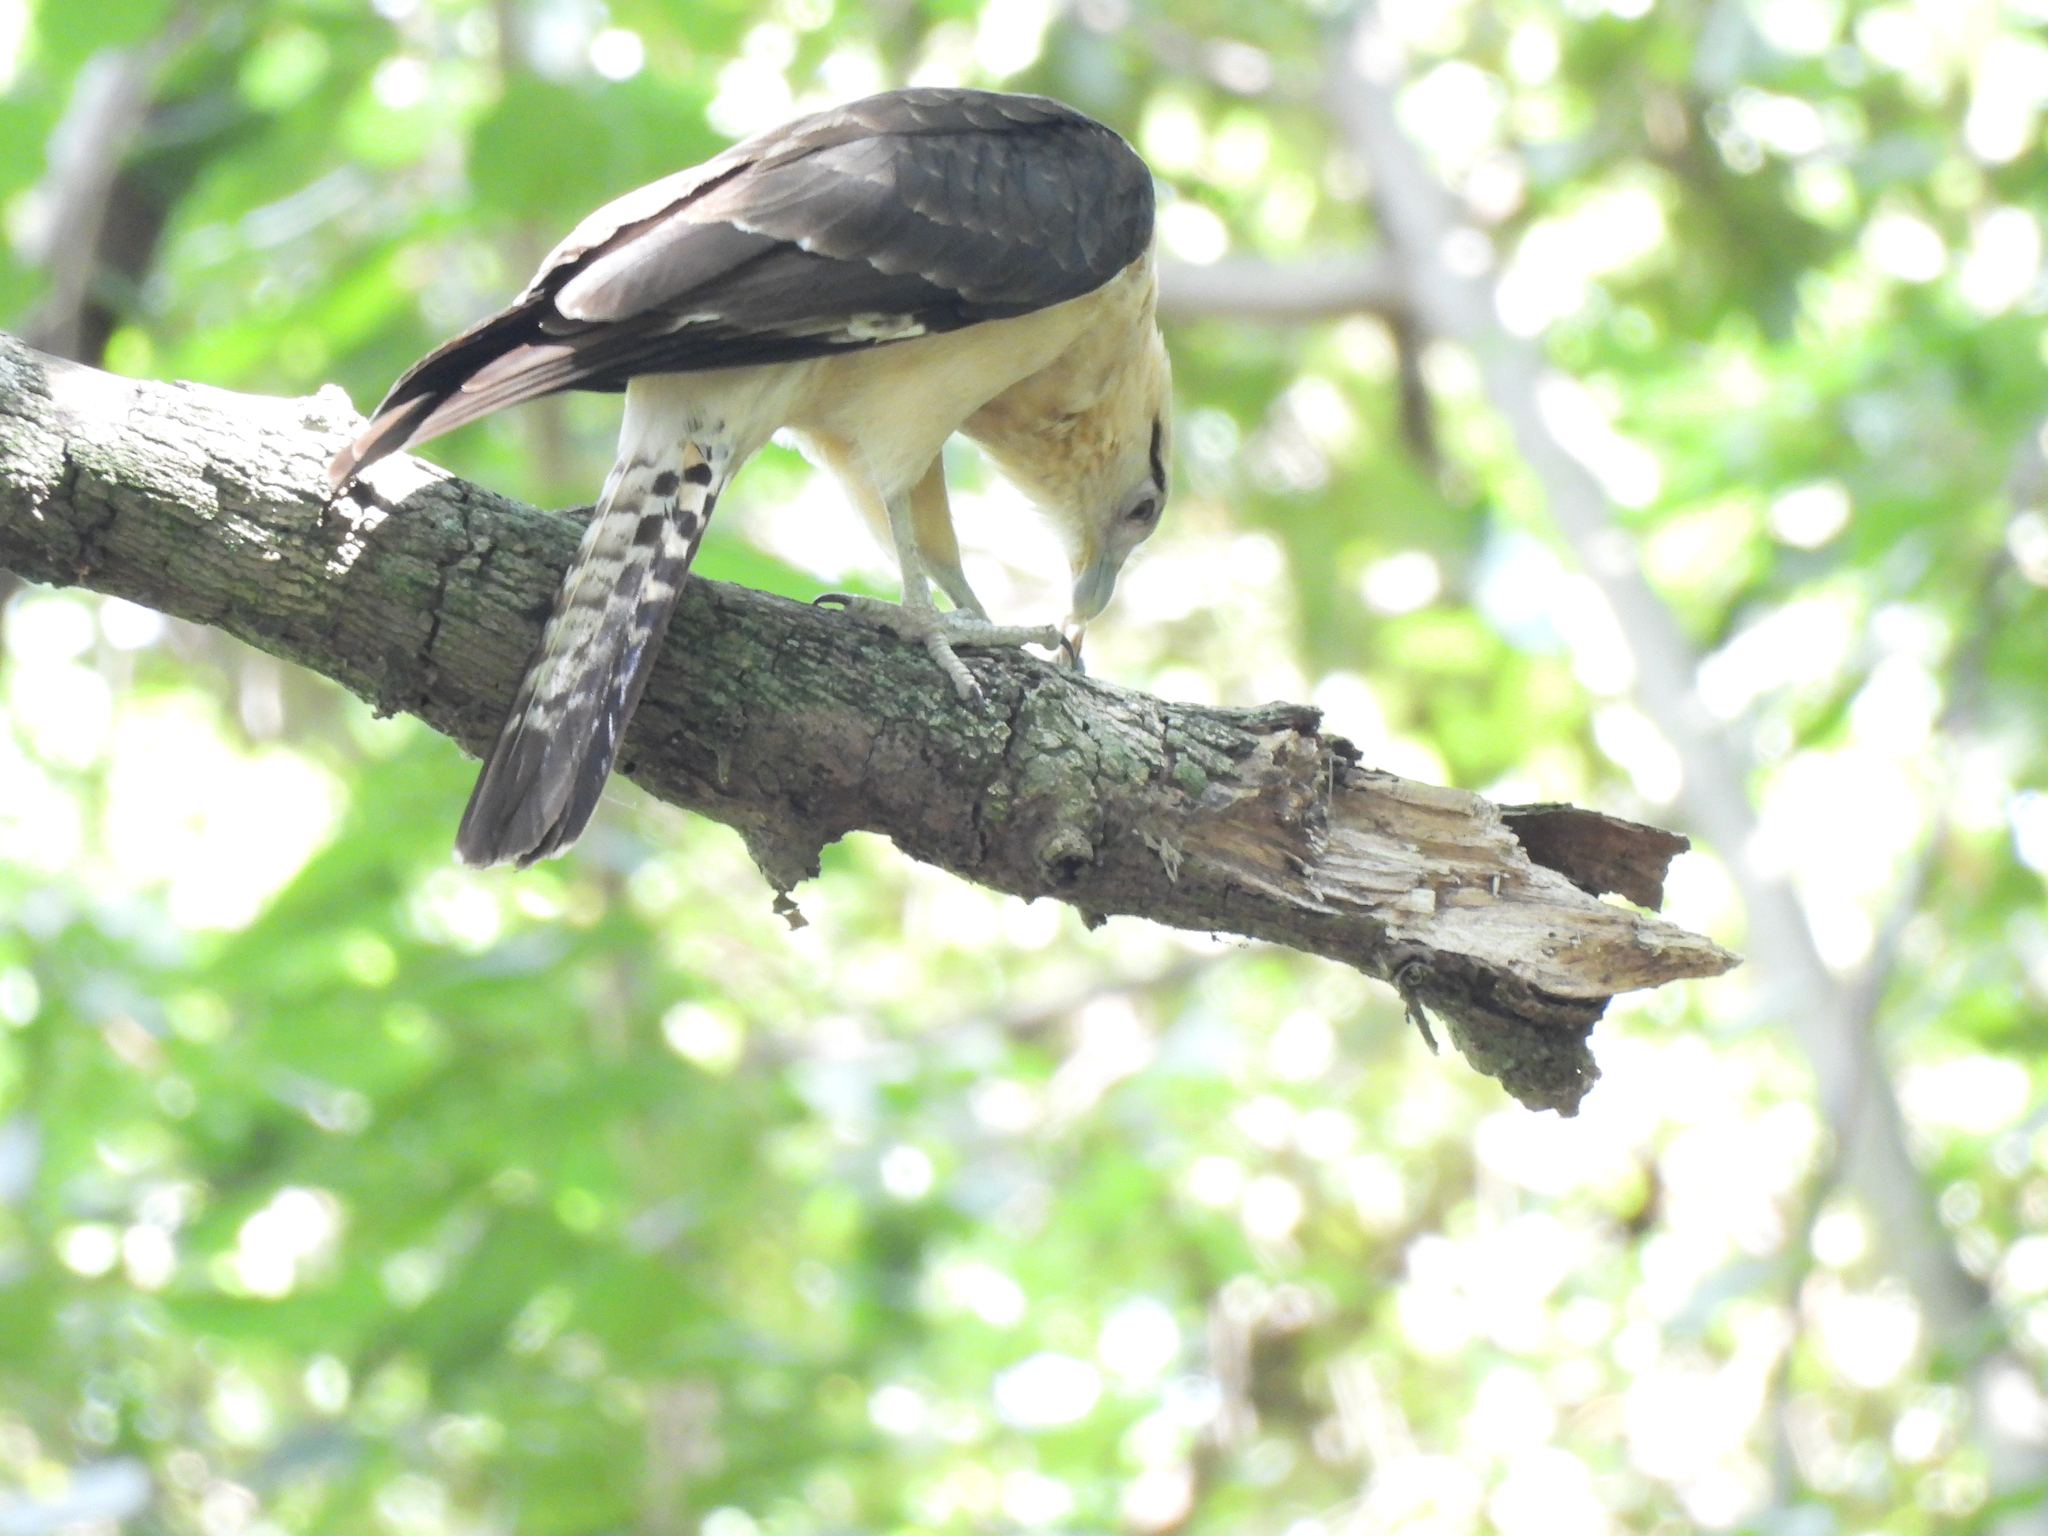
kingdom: Animalia
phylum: Chordata
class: Aves
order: Falconiformes
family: Falconidae
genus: Daptrius
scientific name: Daptrius
